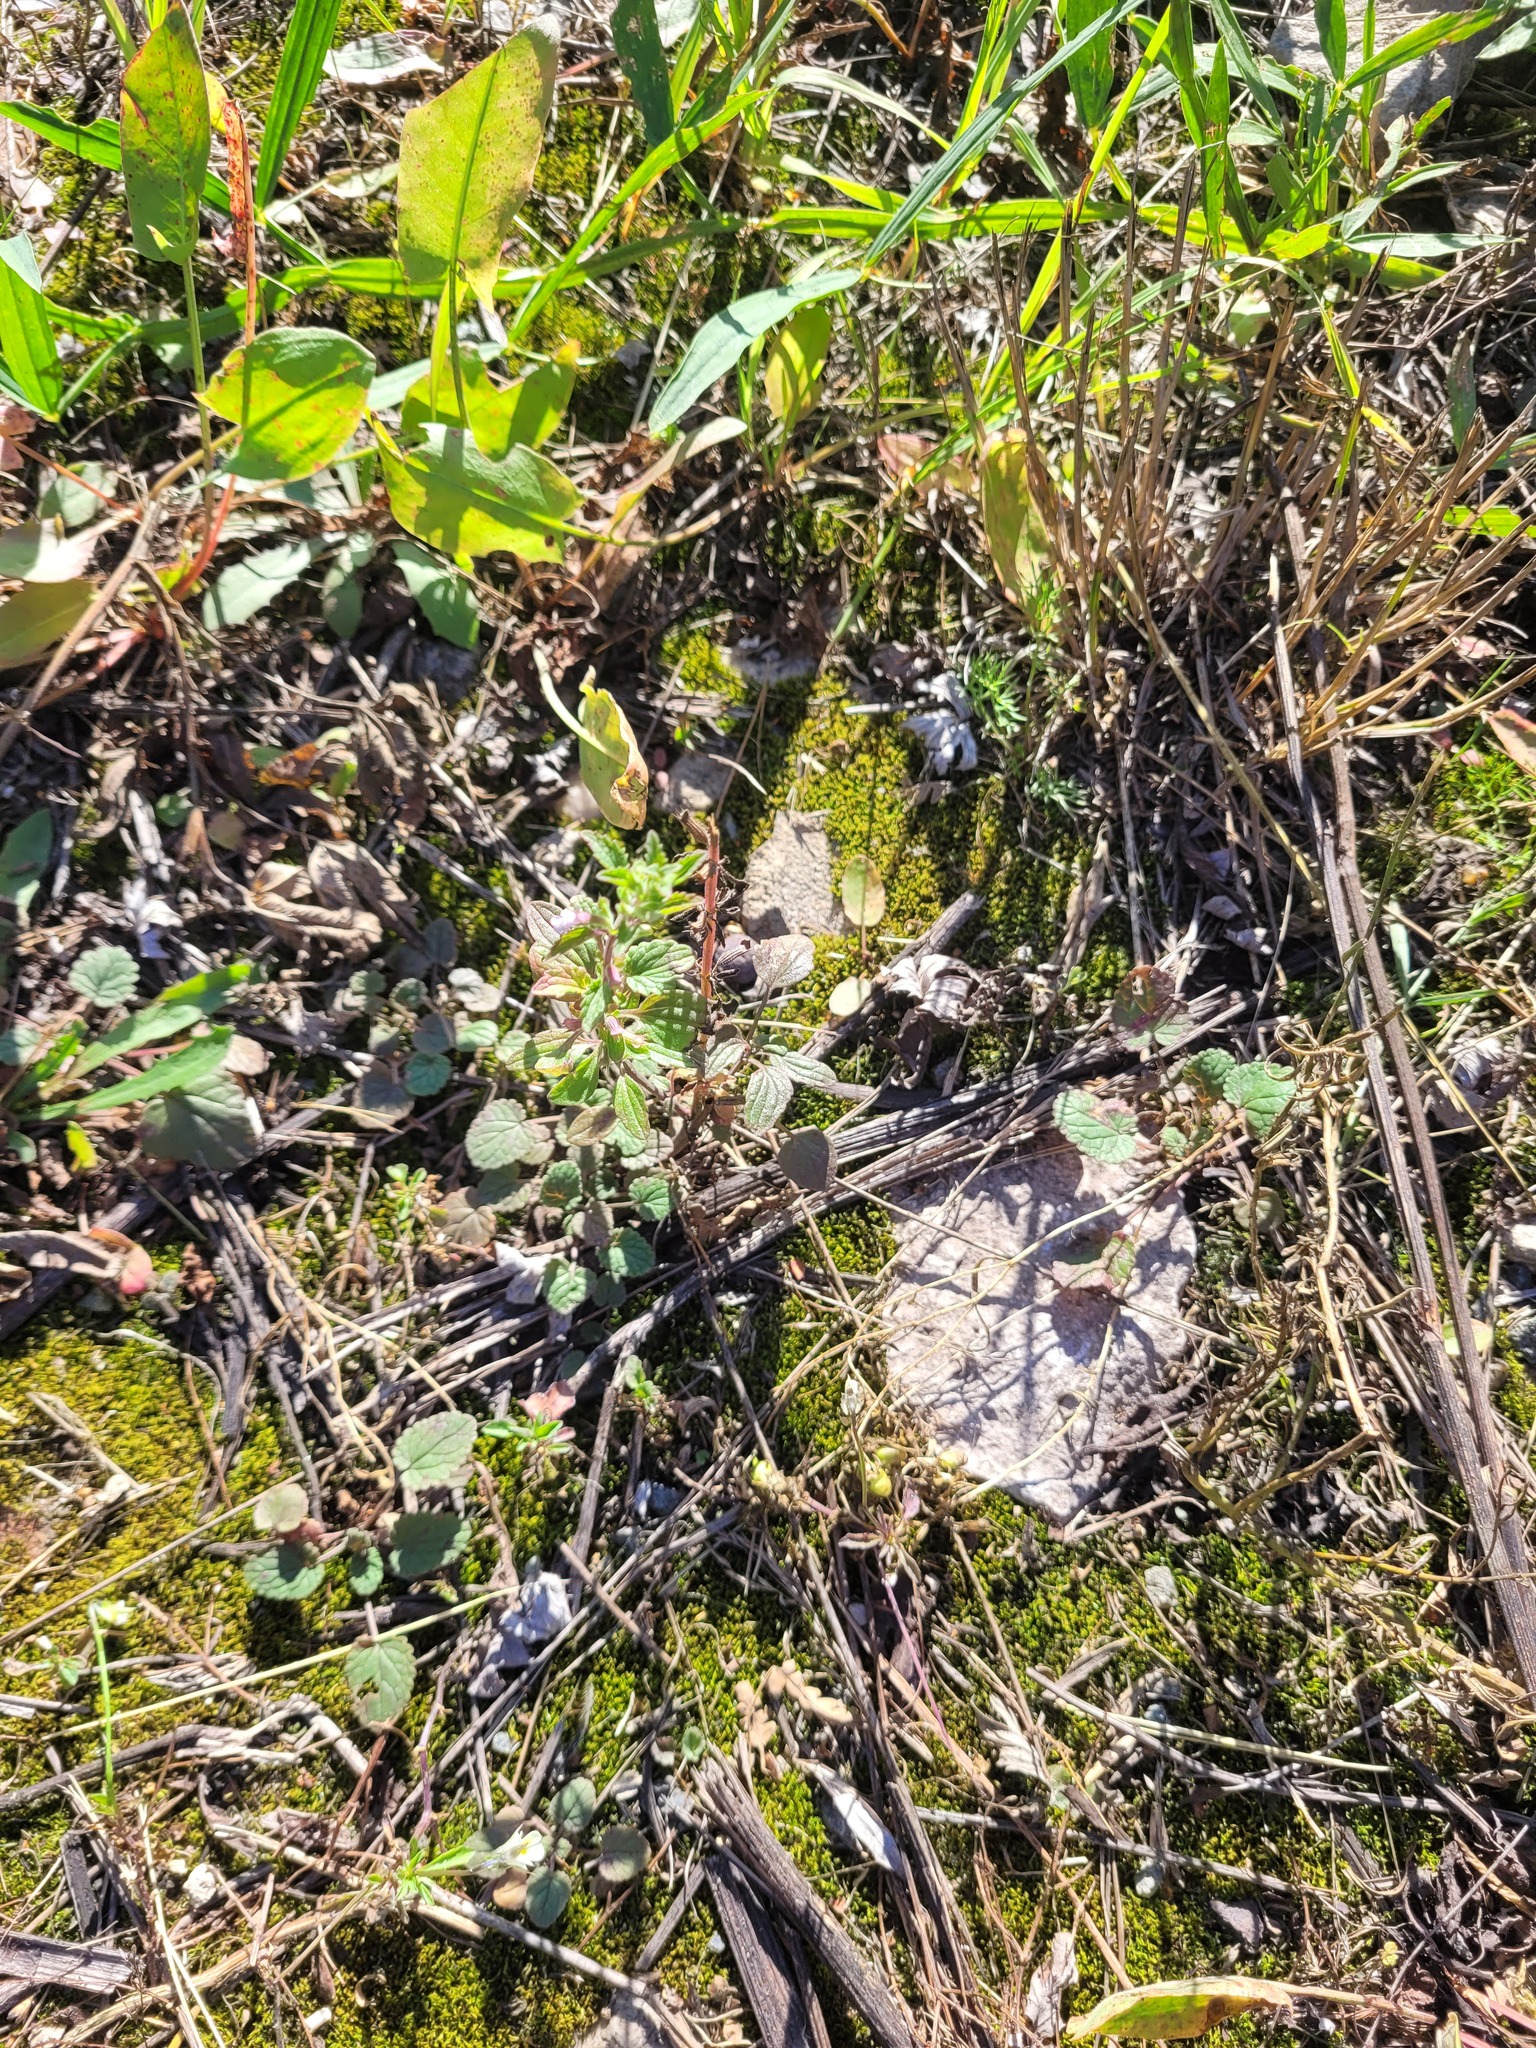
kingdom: Plantae
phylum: Tracheophyta
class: Magnoliopsida
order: Lamiales
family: Lamiaceae
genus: Dracocephalum
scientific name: Dracocephalum thymiflorum
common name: Thymeleaf dragonhead
